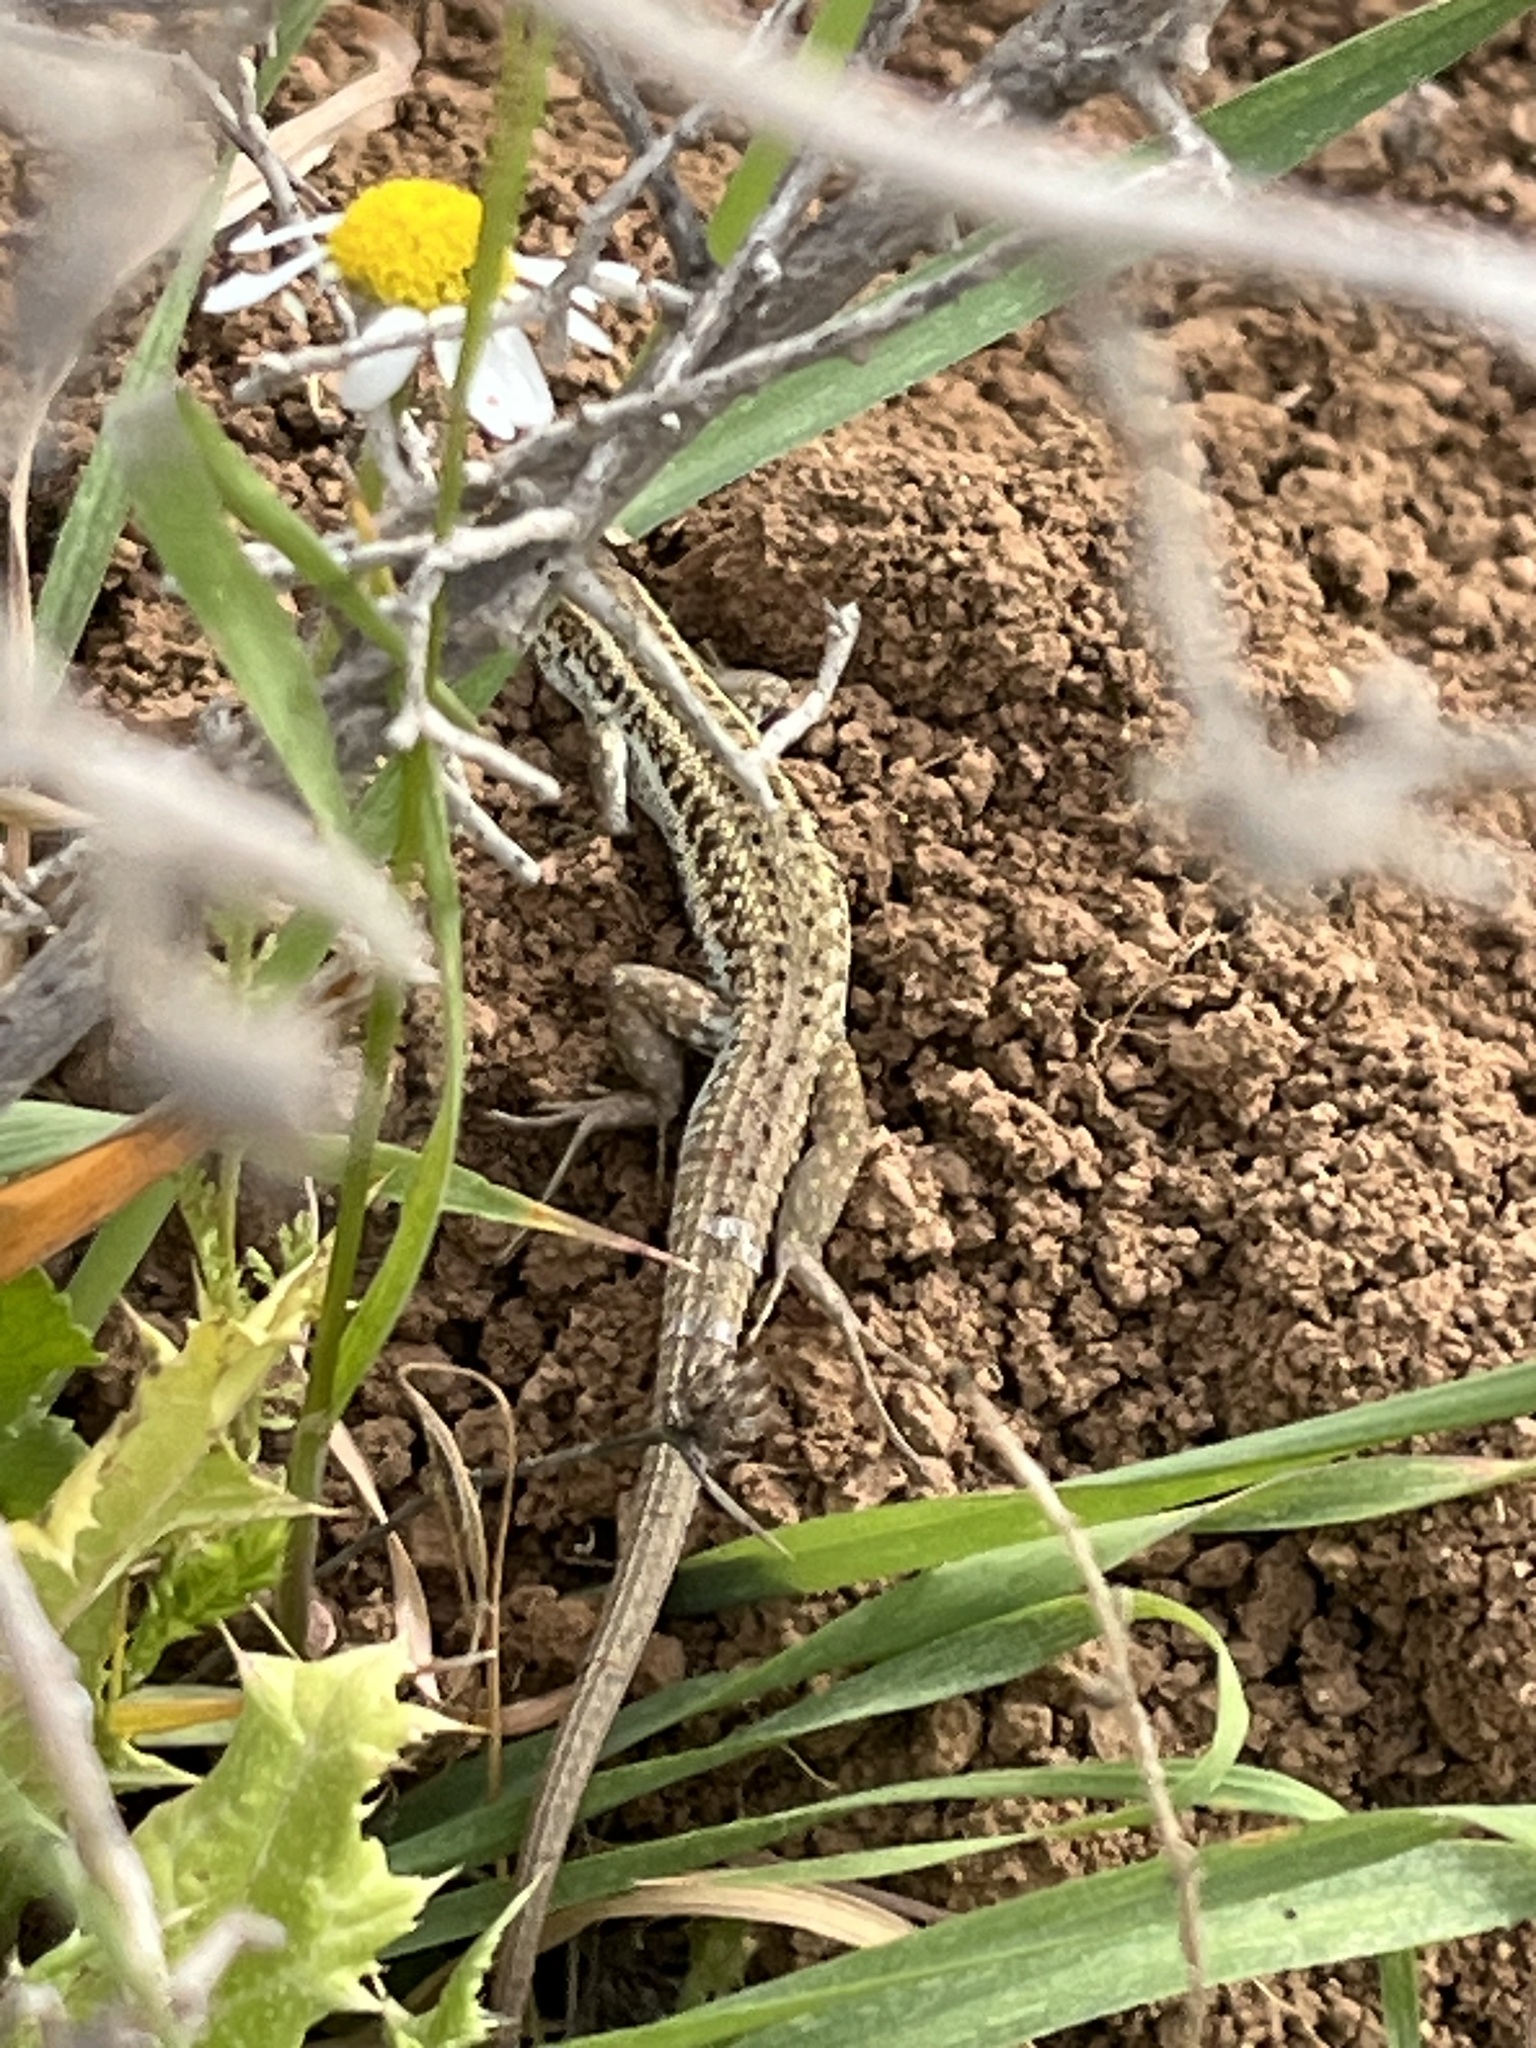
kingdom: Animalia
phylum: Chordata
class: Squamata
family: Lacertidae
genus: Ophisops
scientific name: Ophisops elegans
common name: Snake-eyed lizard
